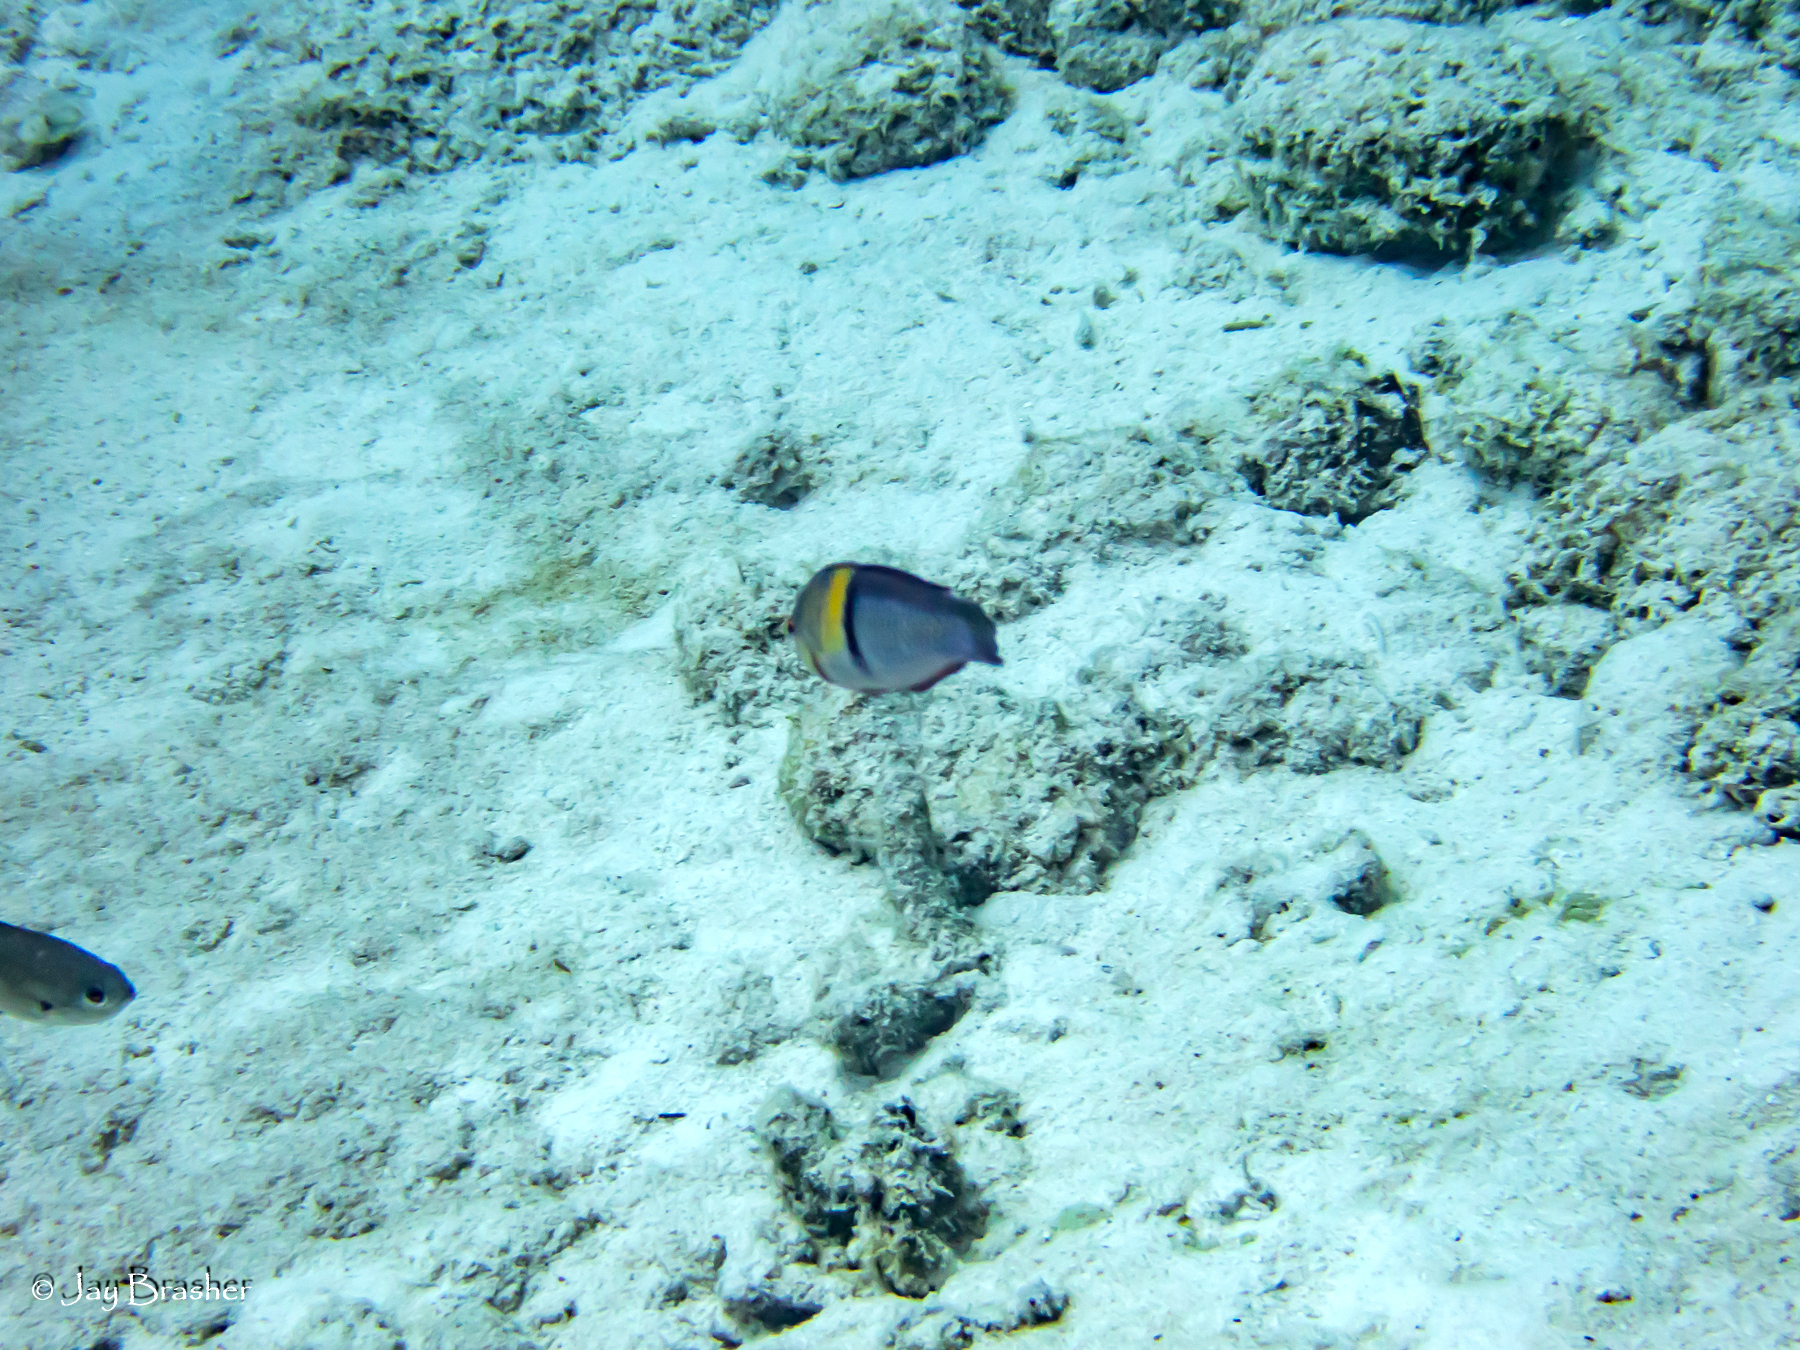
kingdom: Animalia
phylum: Chordata
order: Perciformes
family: Labridae
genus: Halichoeres
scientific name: Halichoeres garnoti
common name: Yellowhead wrasse
